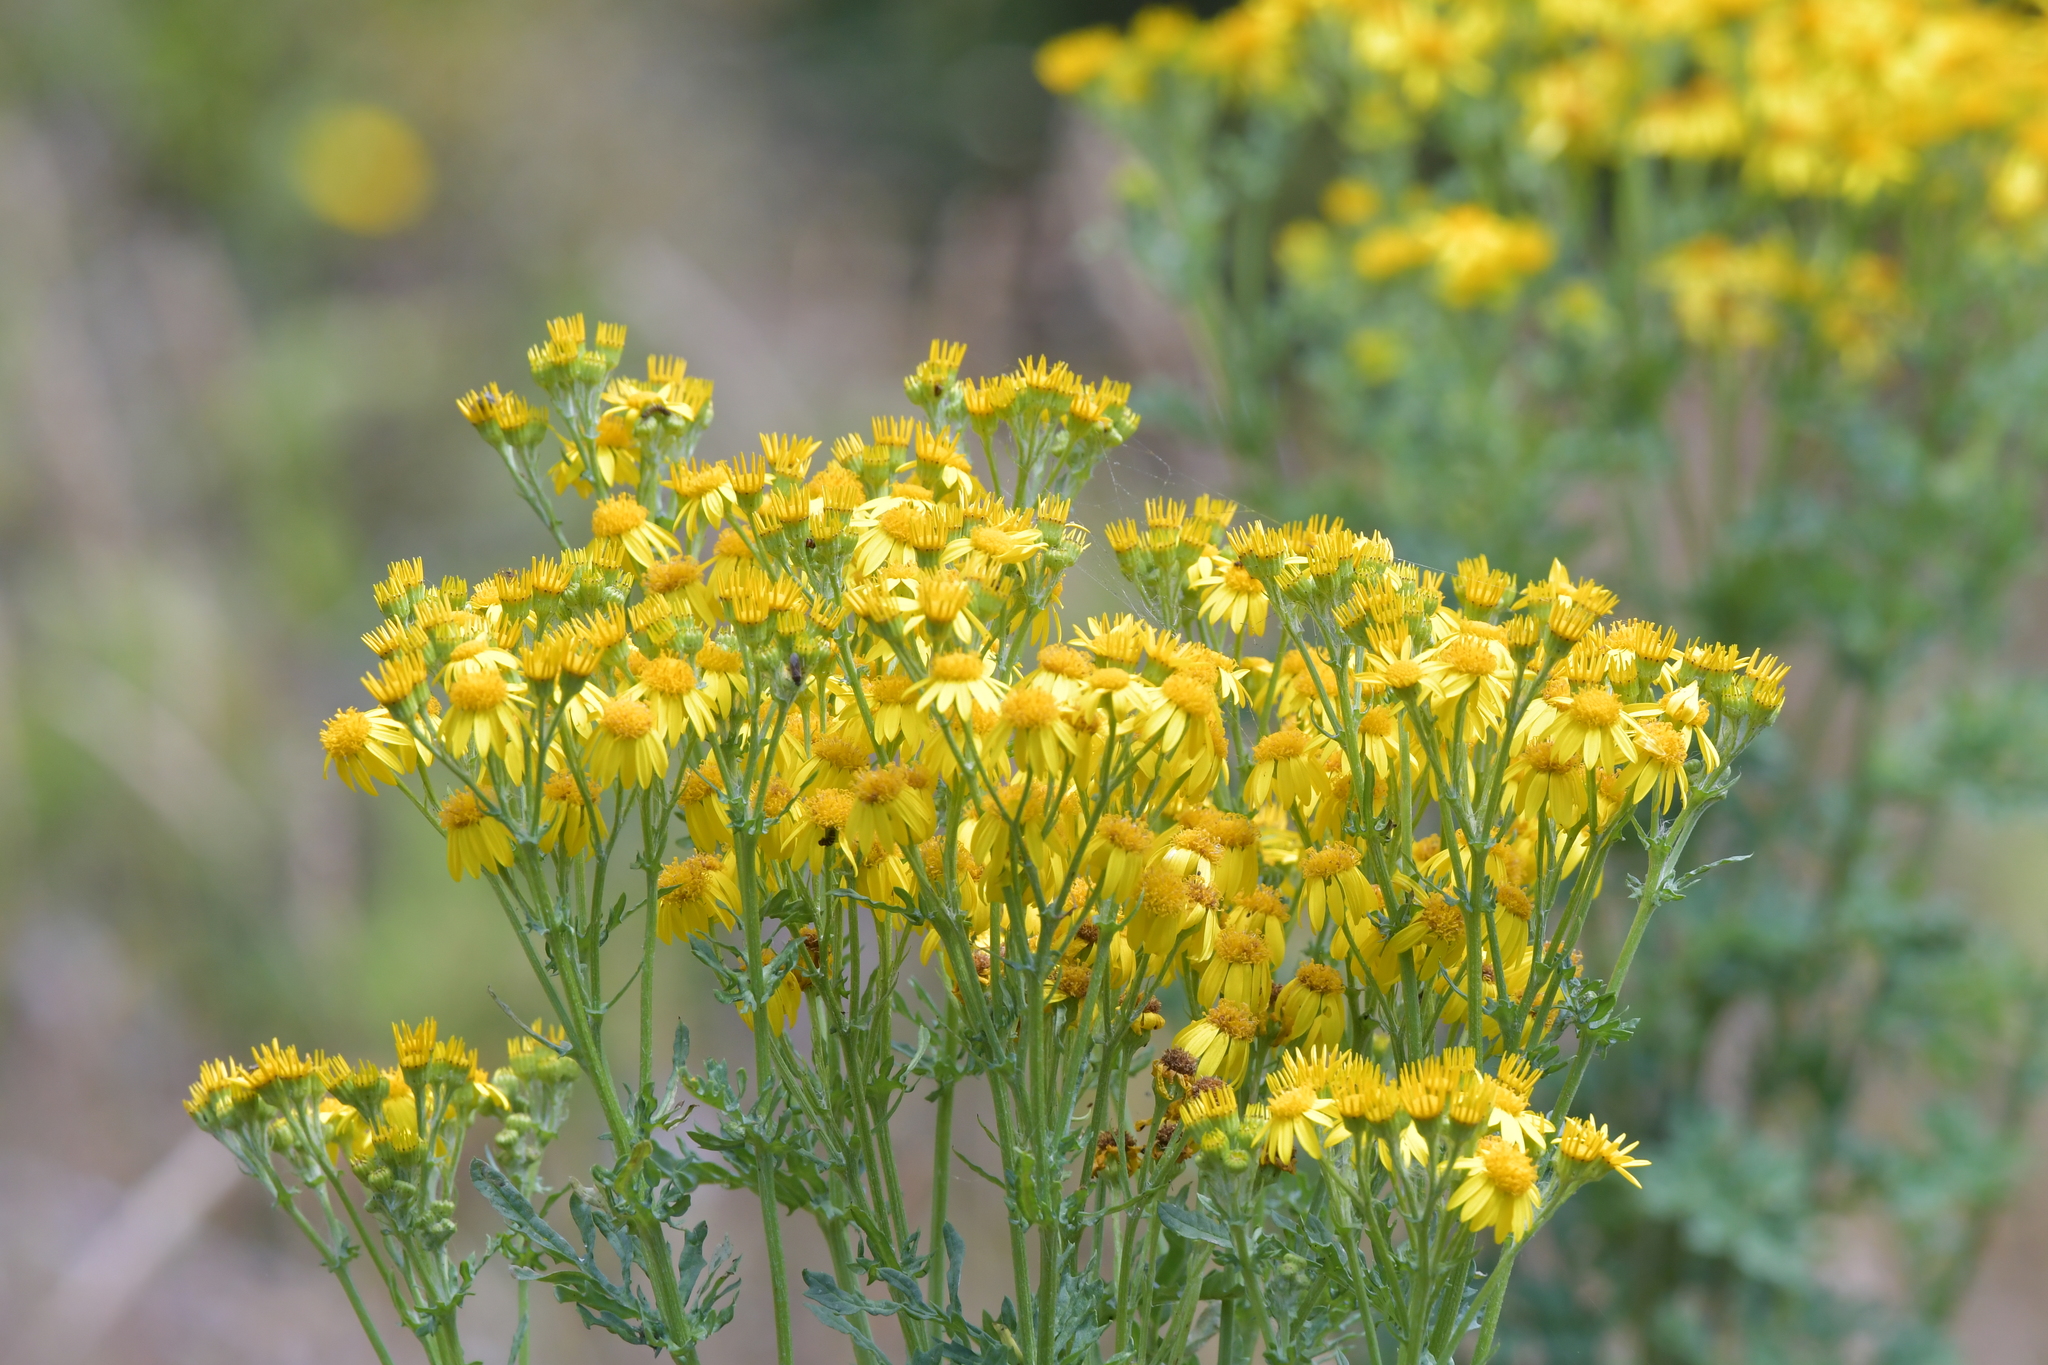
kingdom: Plantae
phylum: Tracheophyta
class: Magnoliopsida
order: Asterales
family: Asteraceae
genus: Jacobaea
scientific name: Jacobaea vulgaris
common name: Stinking willie
